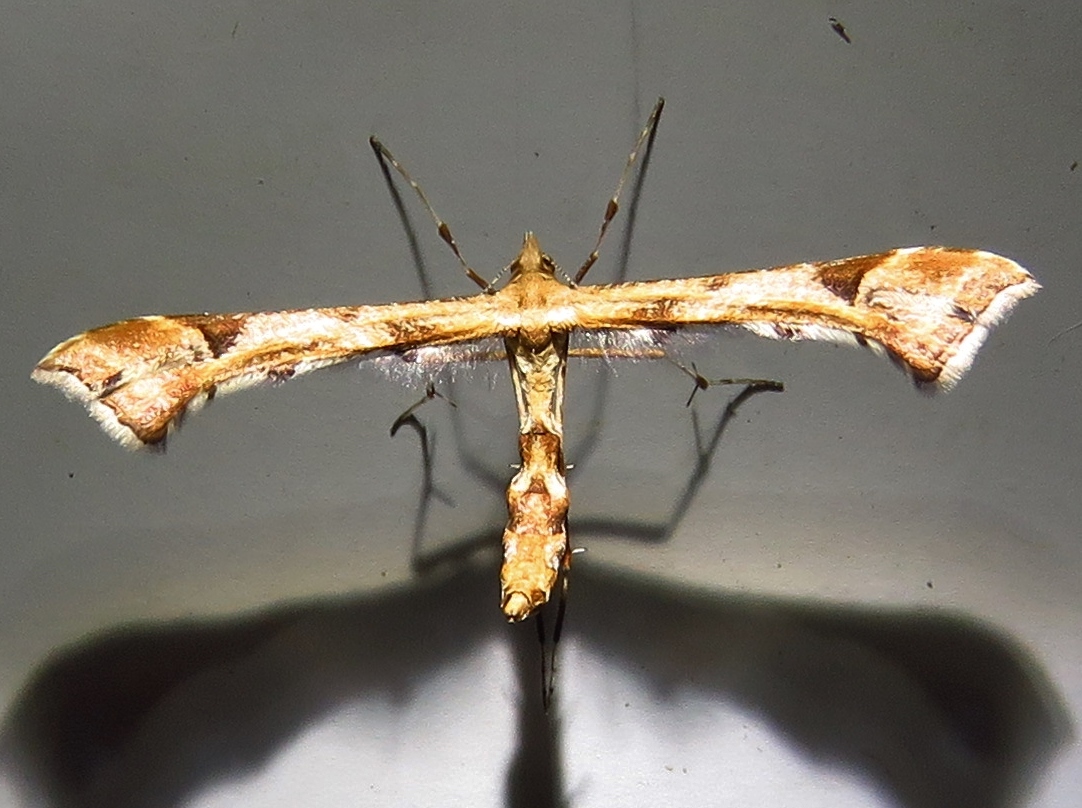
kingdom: Animalia
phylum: Arthropoda
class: Insecta
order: Lepidoptera
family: Pterophoridae
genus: Platyptilia
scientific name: Platyptilia carduidactylus
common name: Artichoke plume moth
